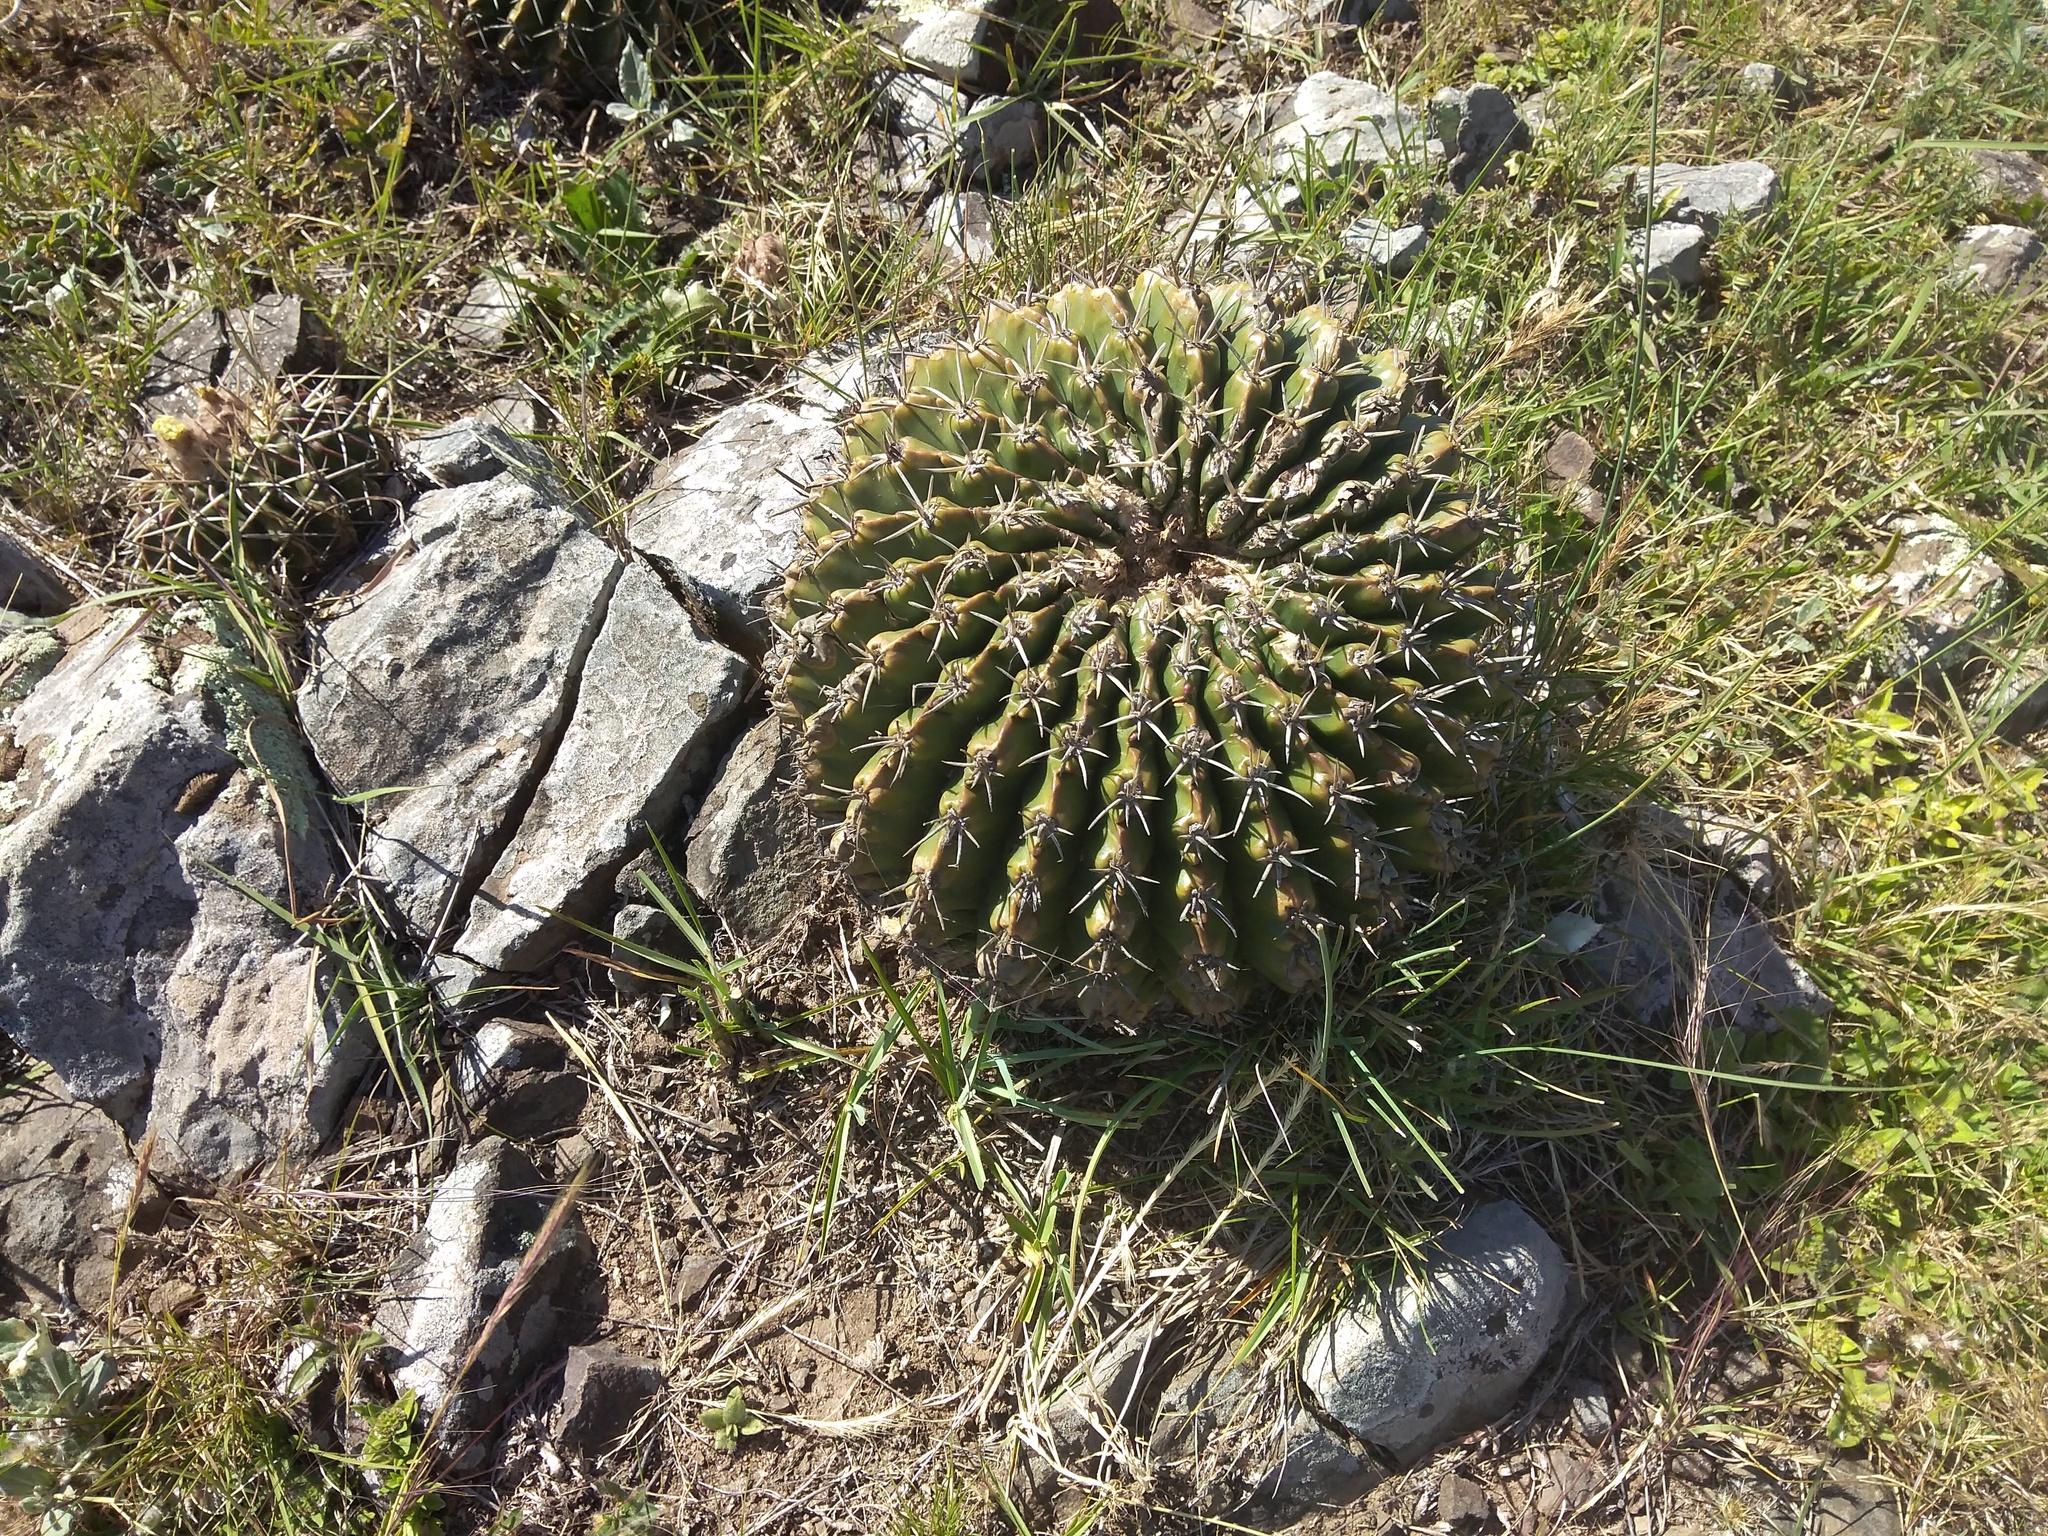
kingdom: Plantae
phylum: Tracheophyta
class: Magnoliopsida
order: Caryophyllales
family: Cactaceae
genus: Parodia
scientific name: Parodia erinacea
